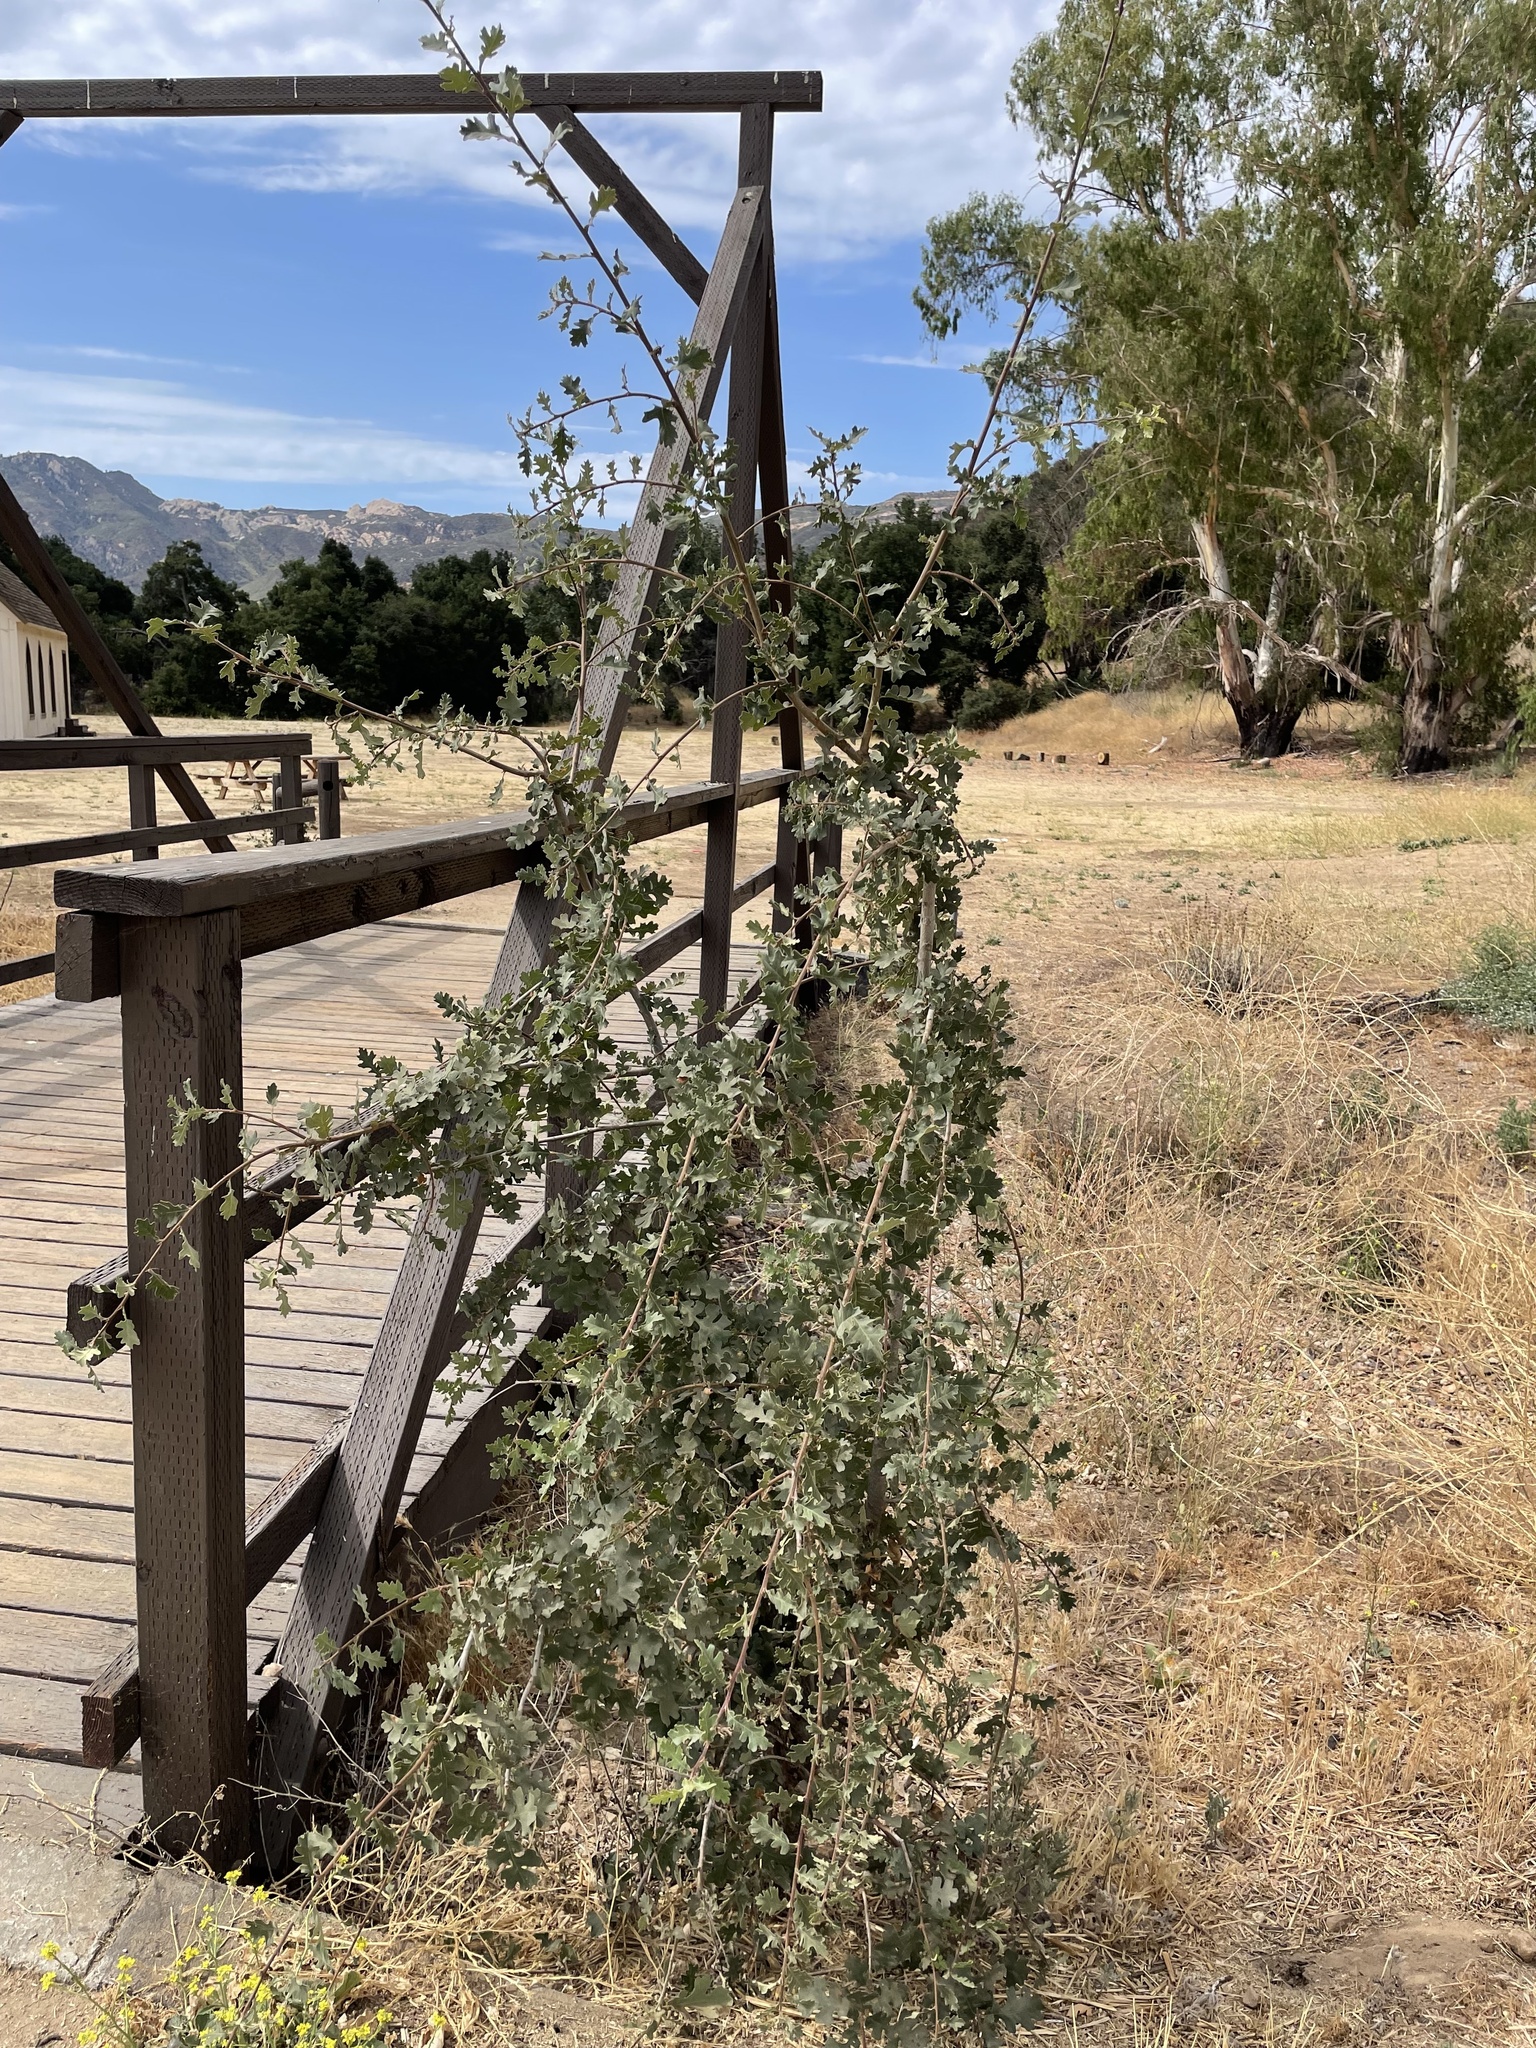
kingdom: Plantae
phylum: Tracheophyta
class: Magnoliopsida
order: Fagales
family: Fagaceae
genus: Quercus
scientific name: Quercus lobata
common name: Valley oak
